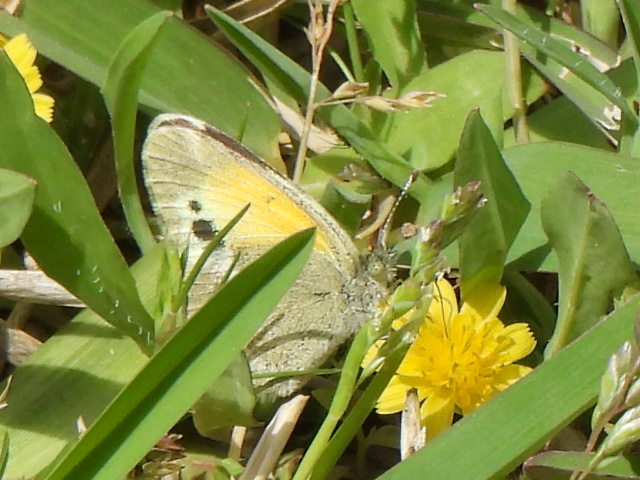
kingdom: Animalia
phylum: Arthropoda
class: Insecta
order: Lepidoptera
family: Pieridae
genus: Nathalis
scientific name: Nathalis iole
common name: Dainty sulphur
